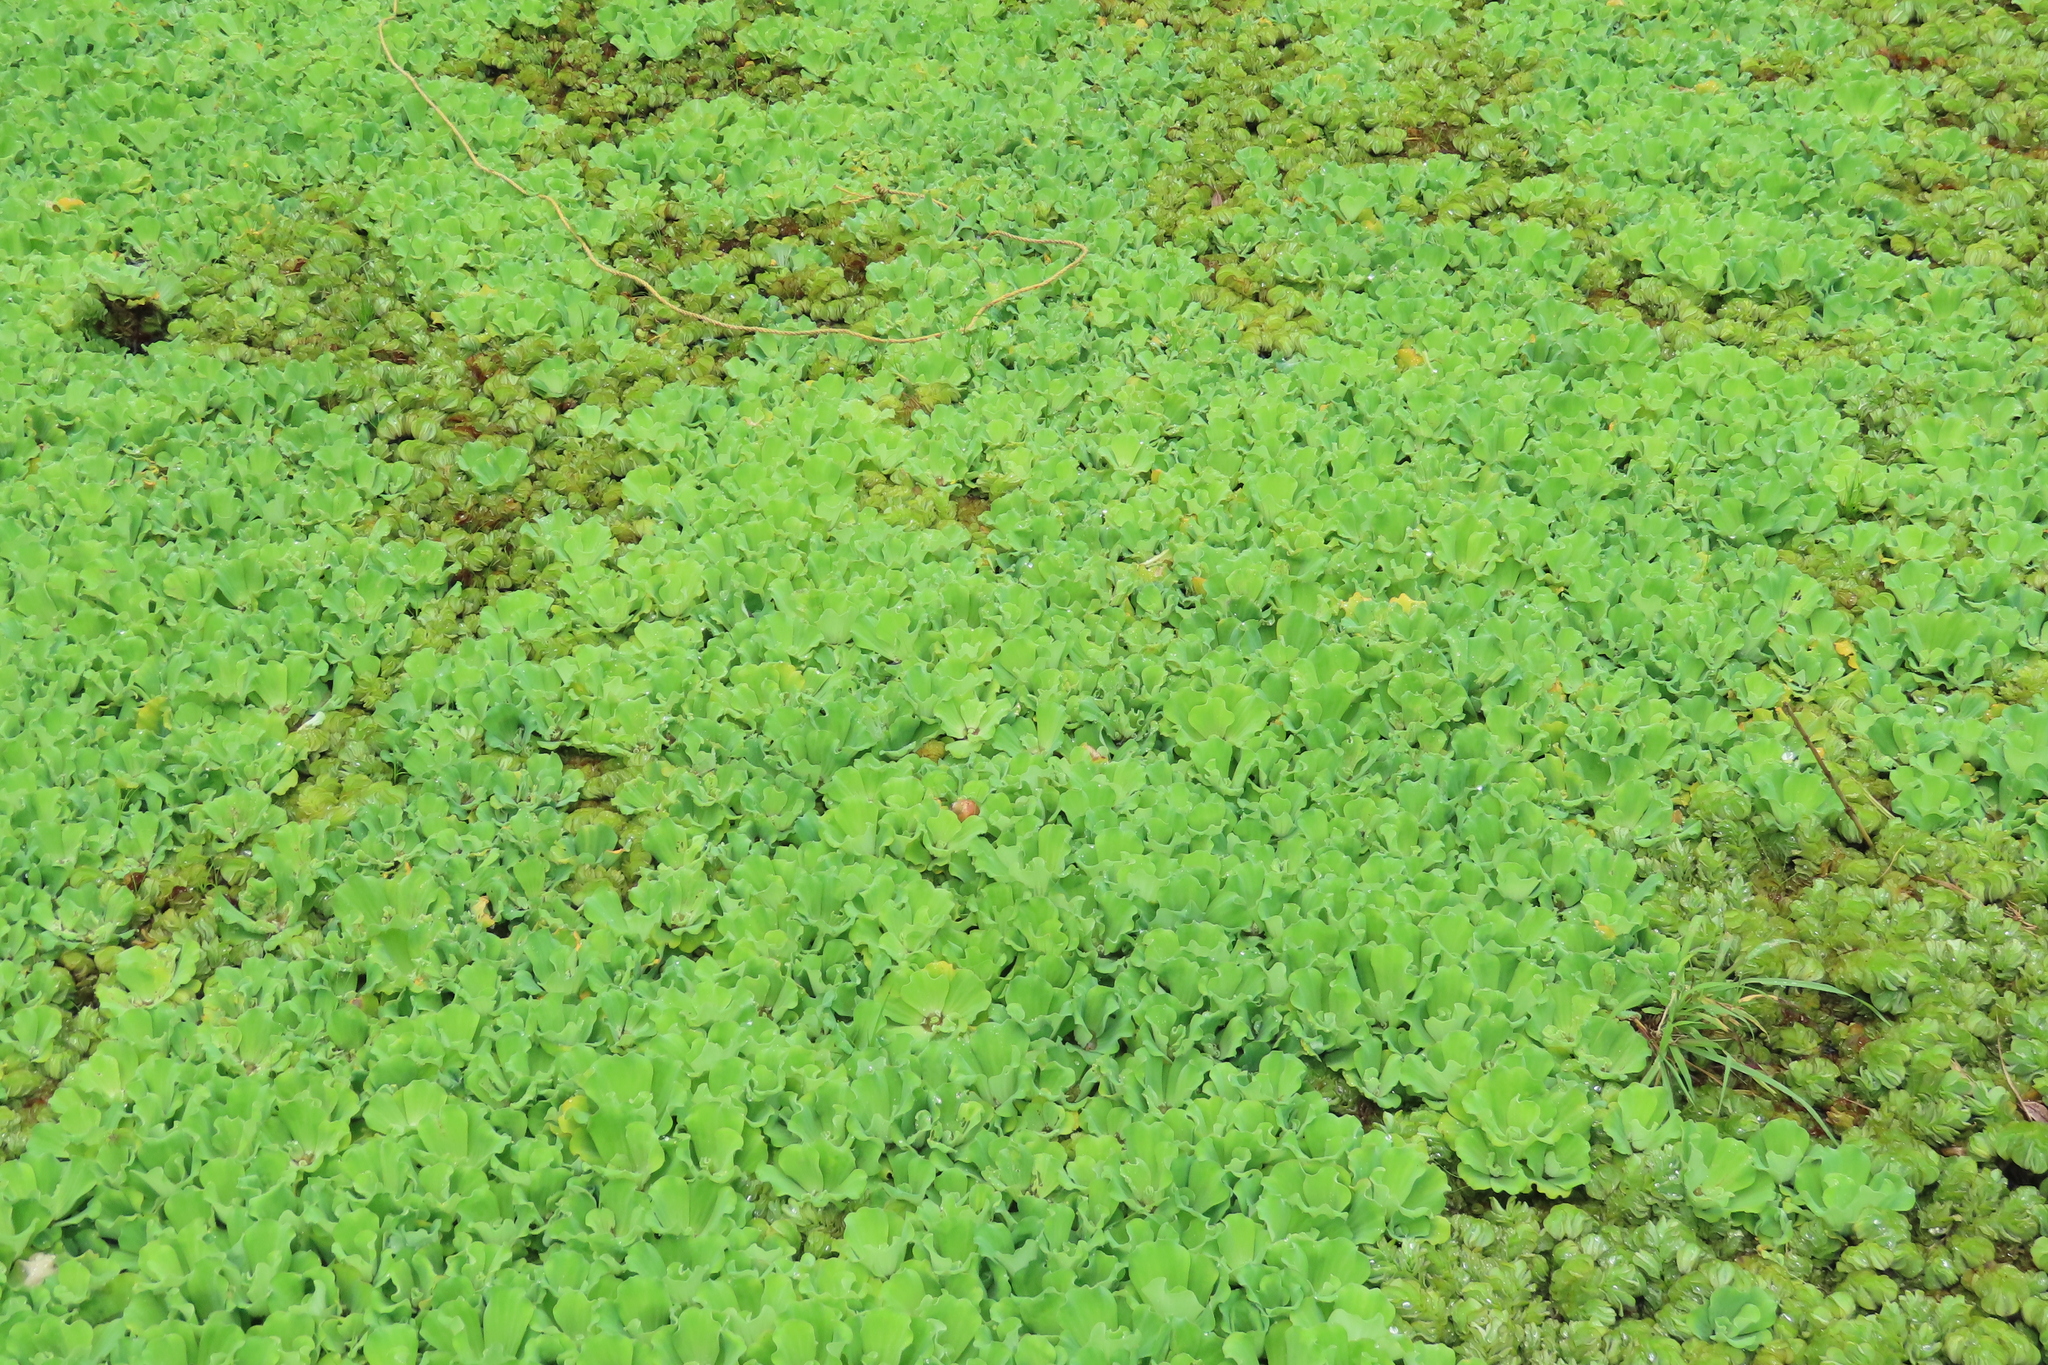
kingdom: Plantae
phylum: Tracheophyta
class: Liliopsida
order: Alismatales
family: Araceae
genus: Pistia
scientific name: Pistia stratiotes
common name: Water lettuce
